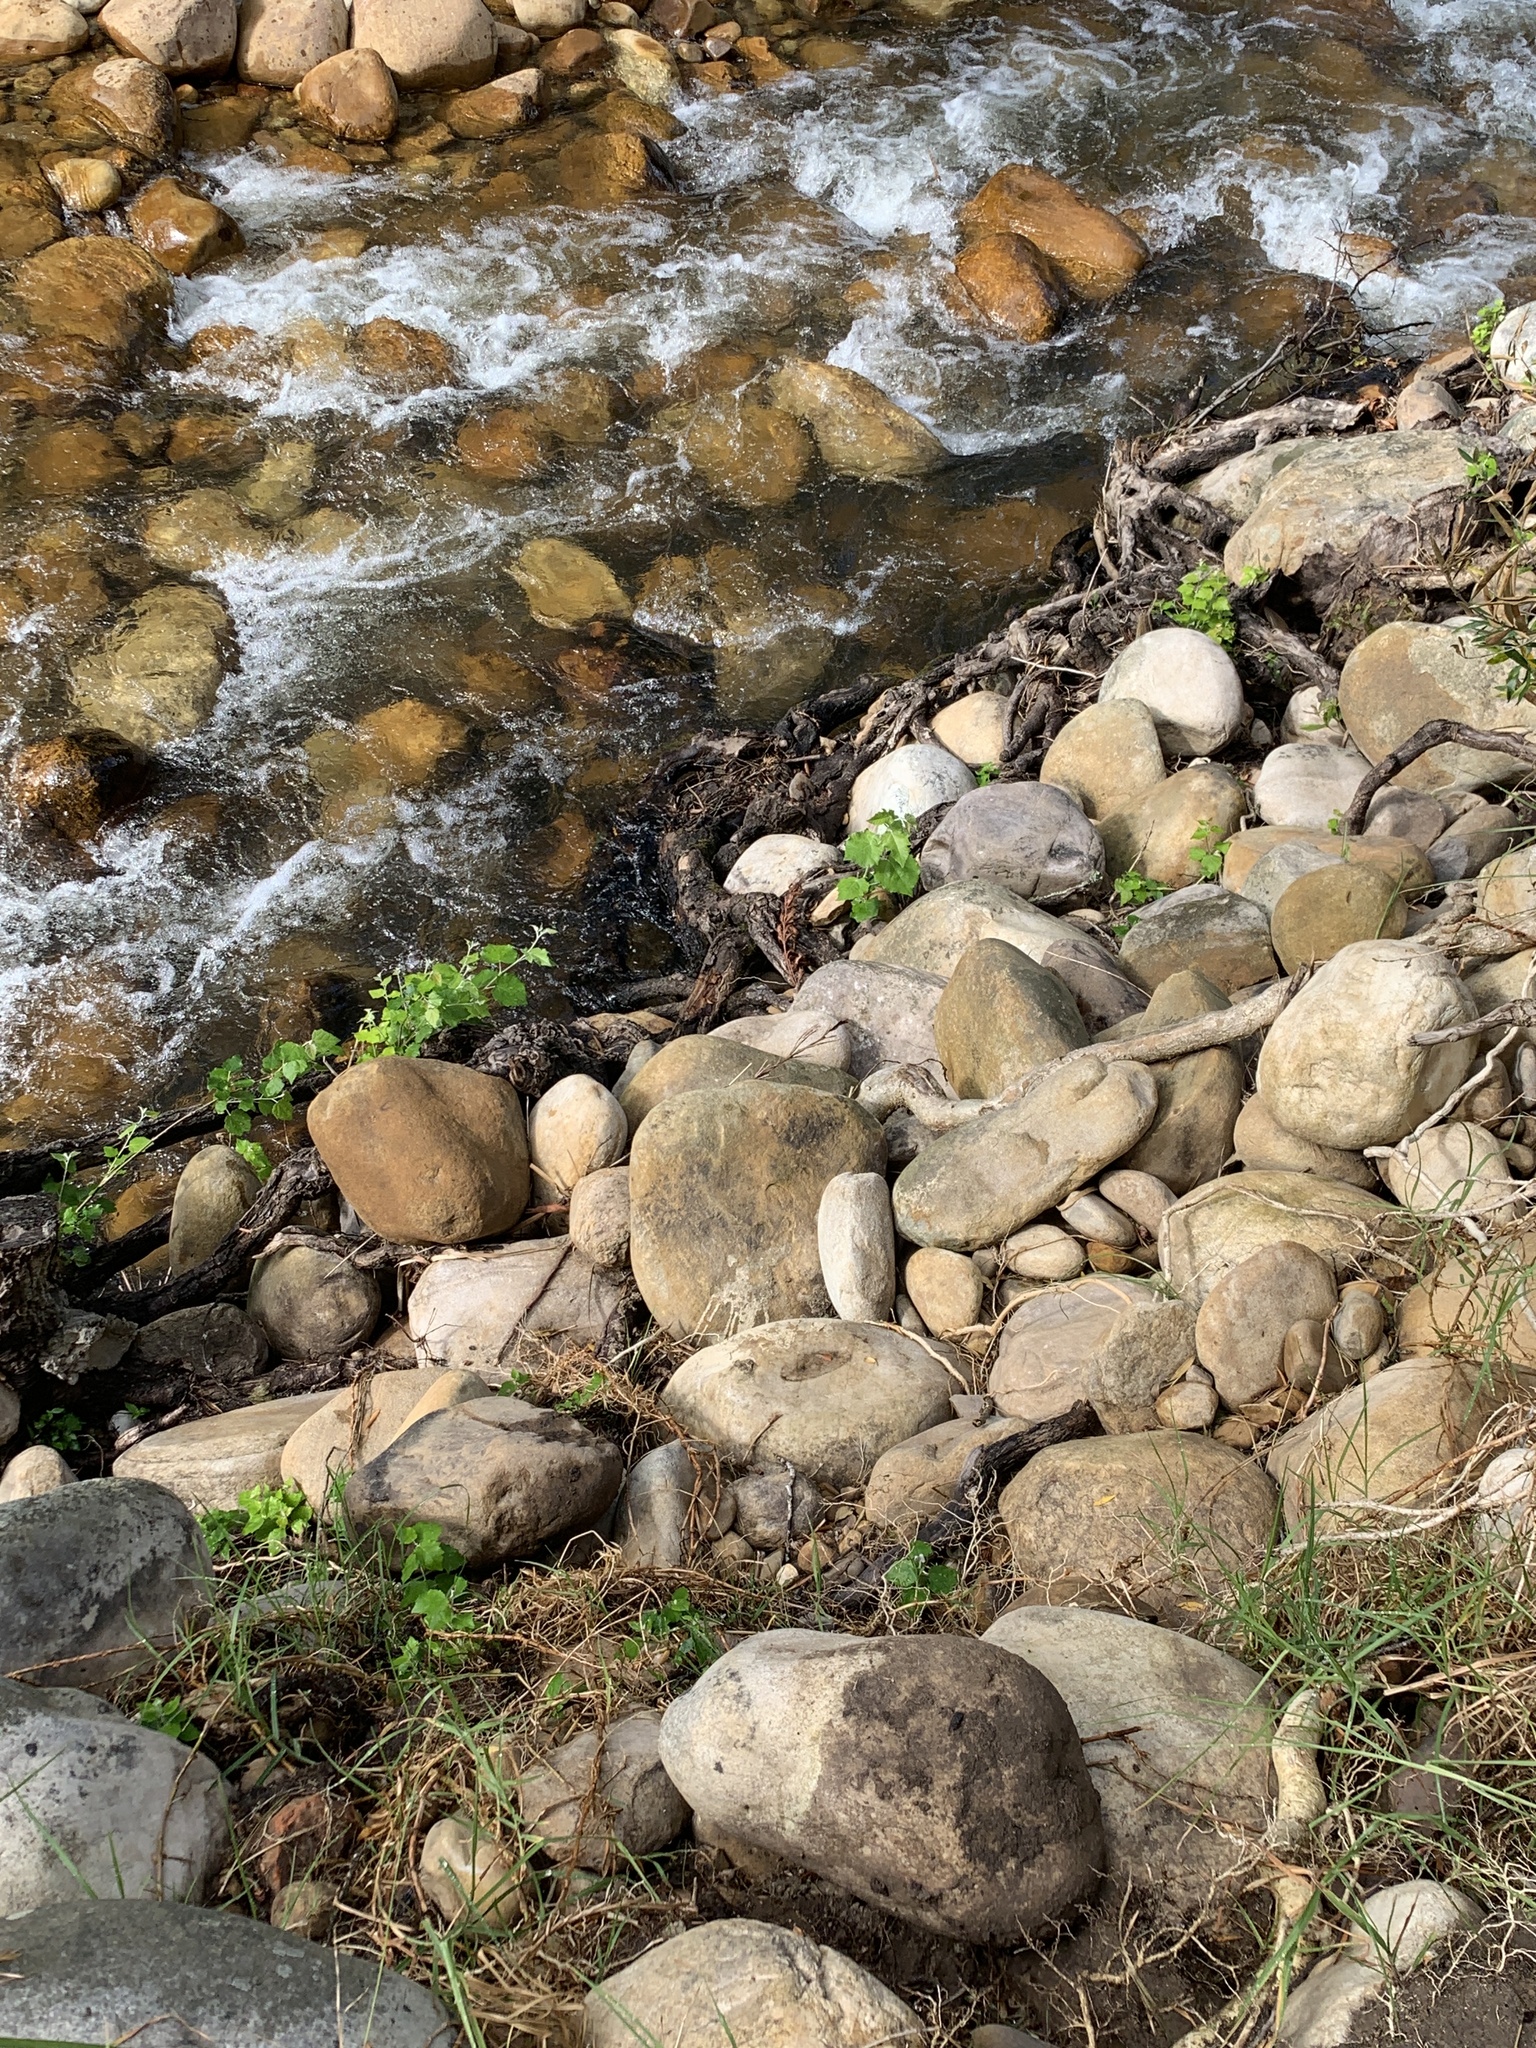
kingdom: Plantae
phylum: Tracheophyta
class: Magnoliopsida
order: Malpighiales
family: Salicaceae
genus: Populus
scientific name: Populus canescens
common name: Gray poplar
